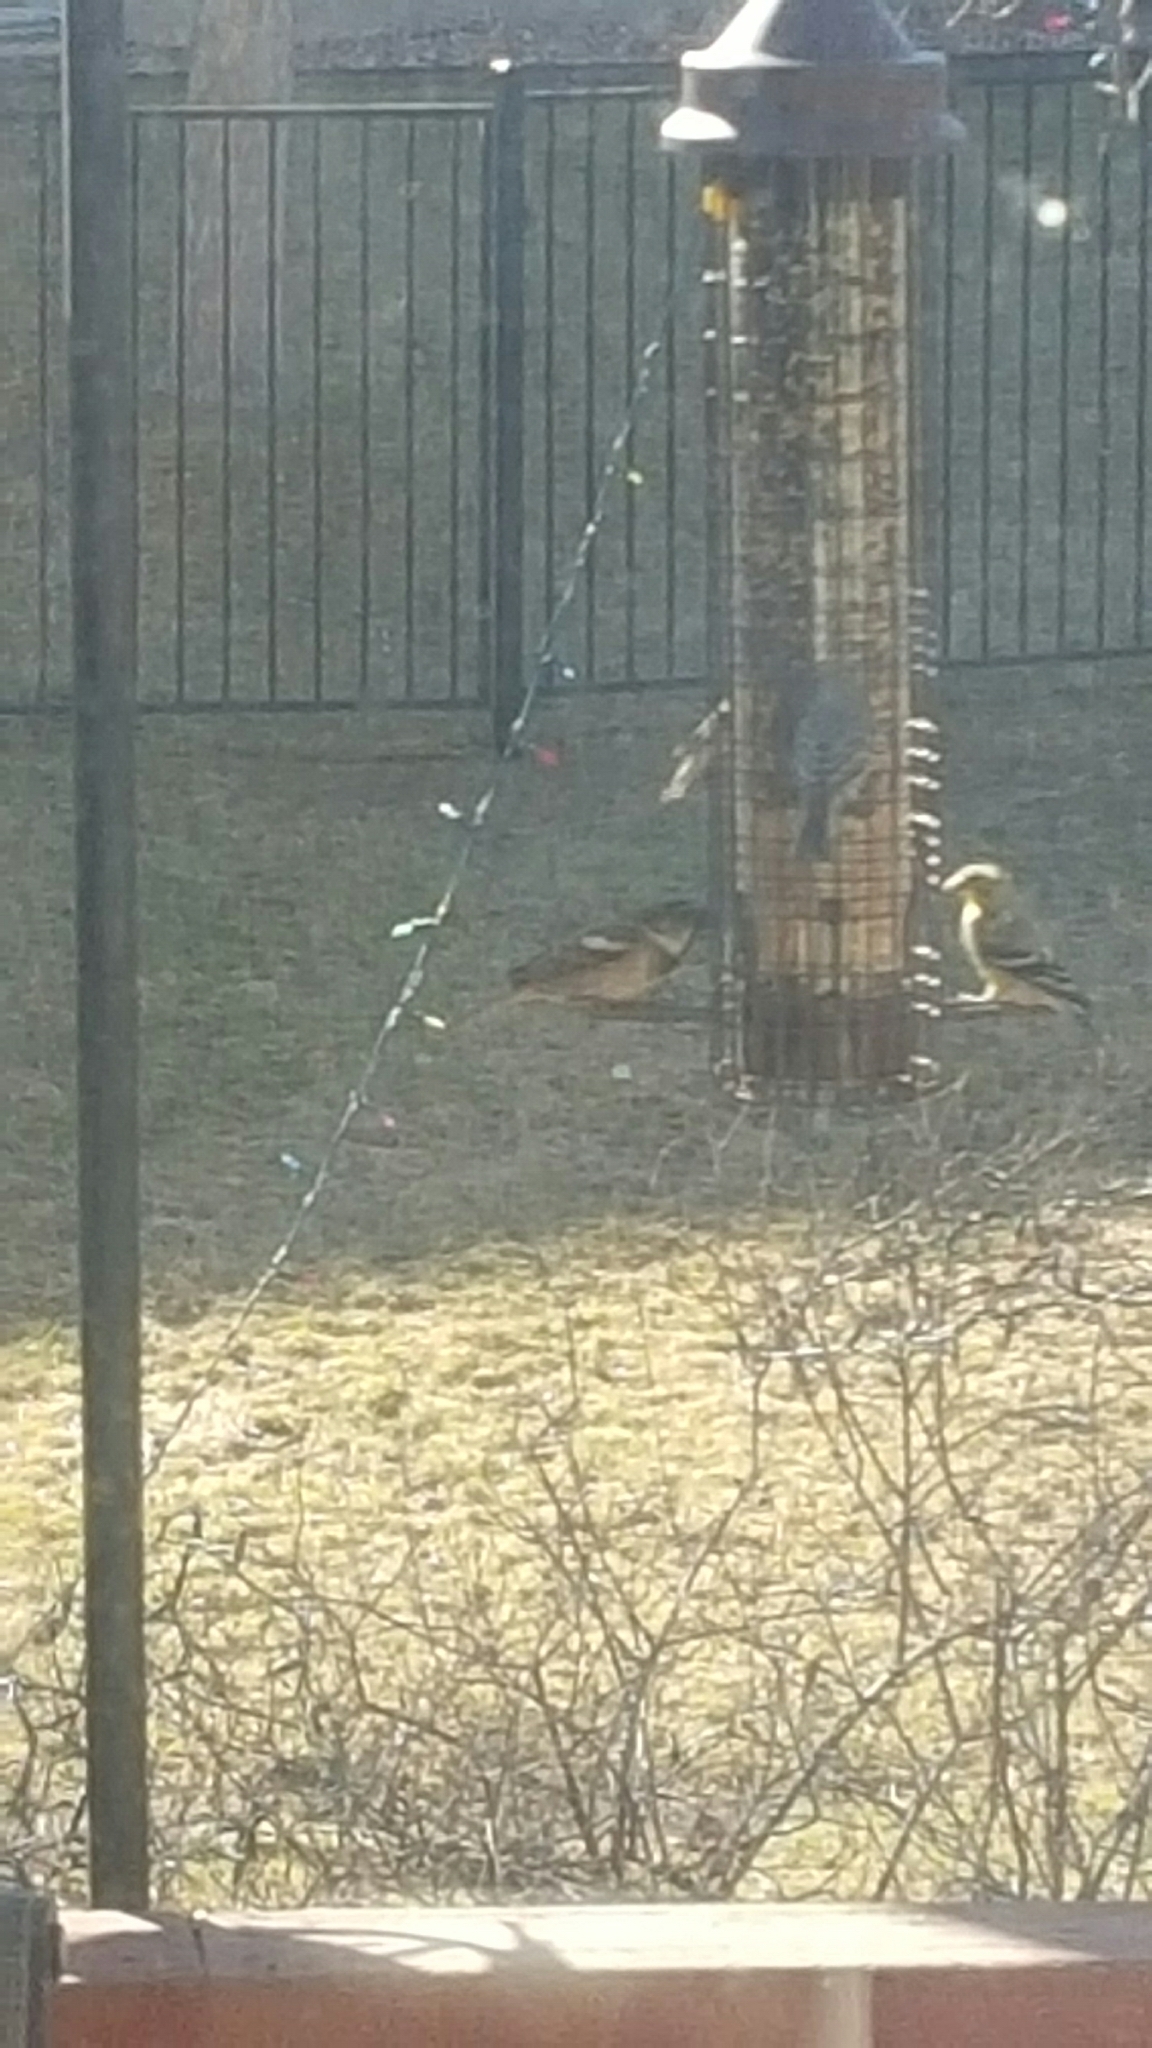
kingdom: Animalia
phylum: Chordata
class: Aves
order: Passeriformes
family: Passeridae
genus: Passer
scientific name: Passer domesticus
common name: House sparrow
